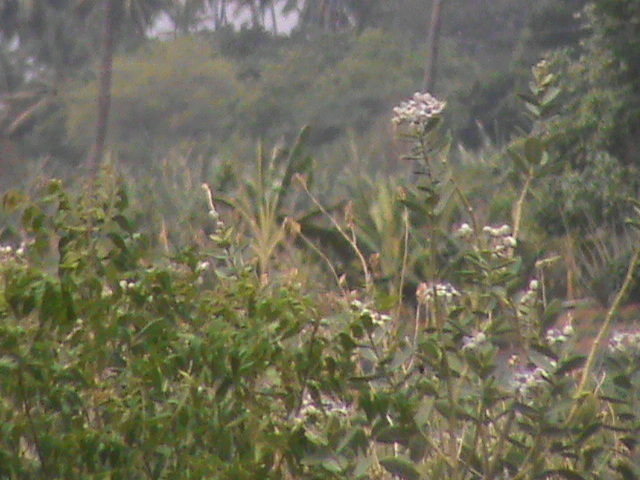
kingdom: Plantae
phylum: Tracheophyta
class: Magnoliopsida
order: Gentianales
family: Apocynaceae
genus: Calotropis
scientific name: Calotropis gigantea
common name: Crown flower
